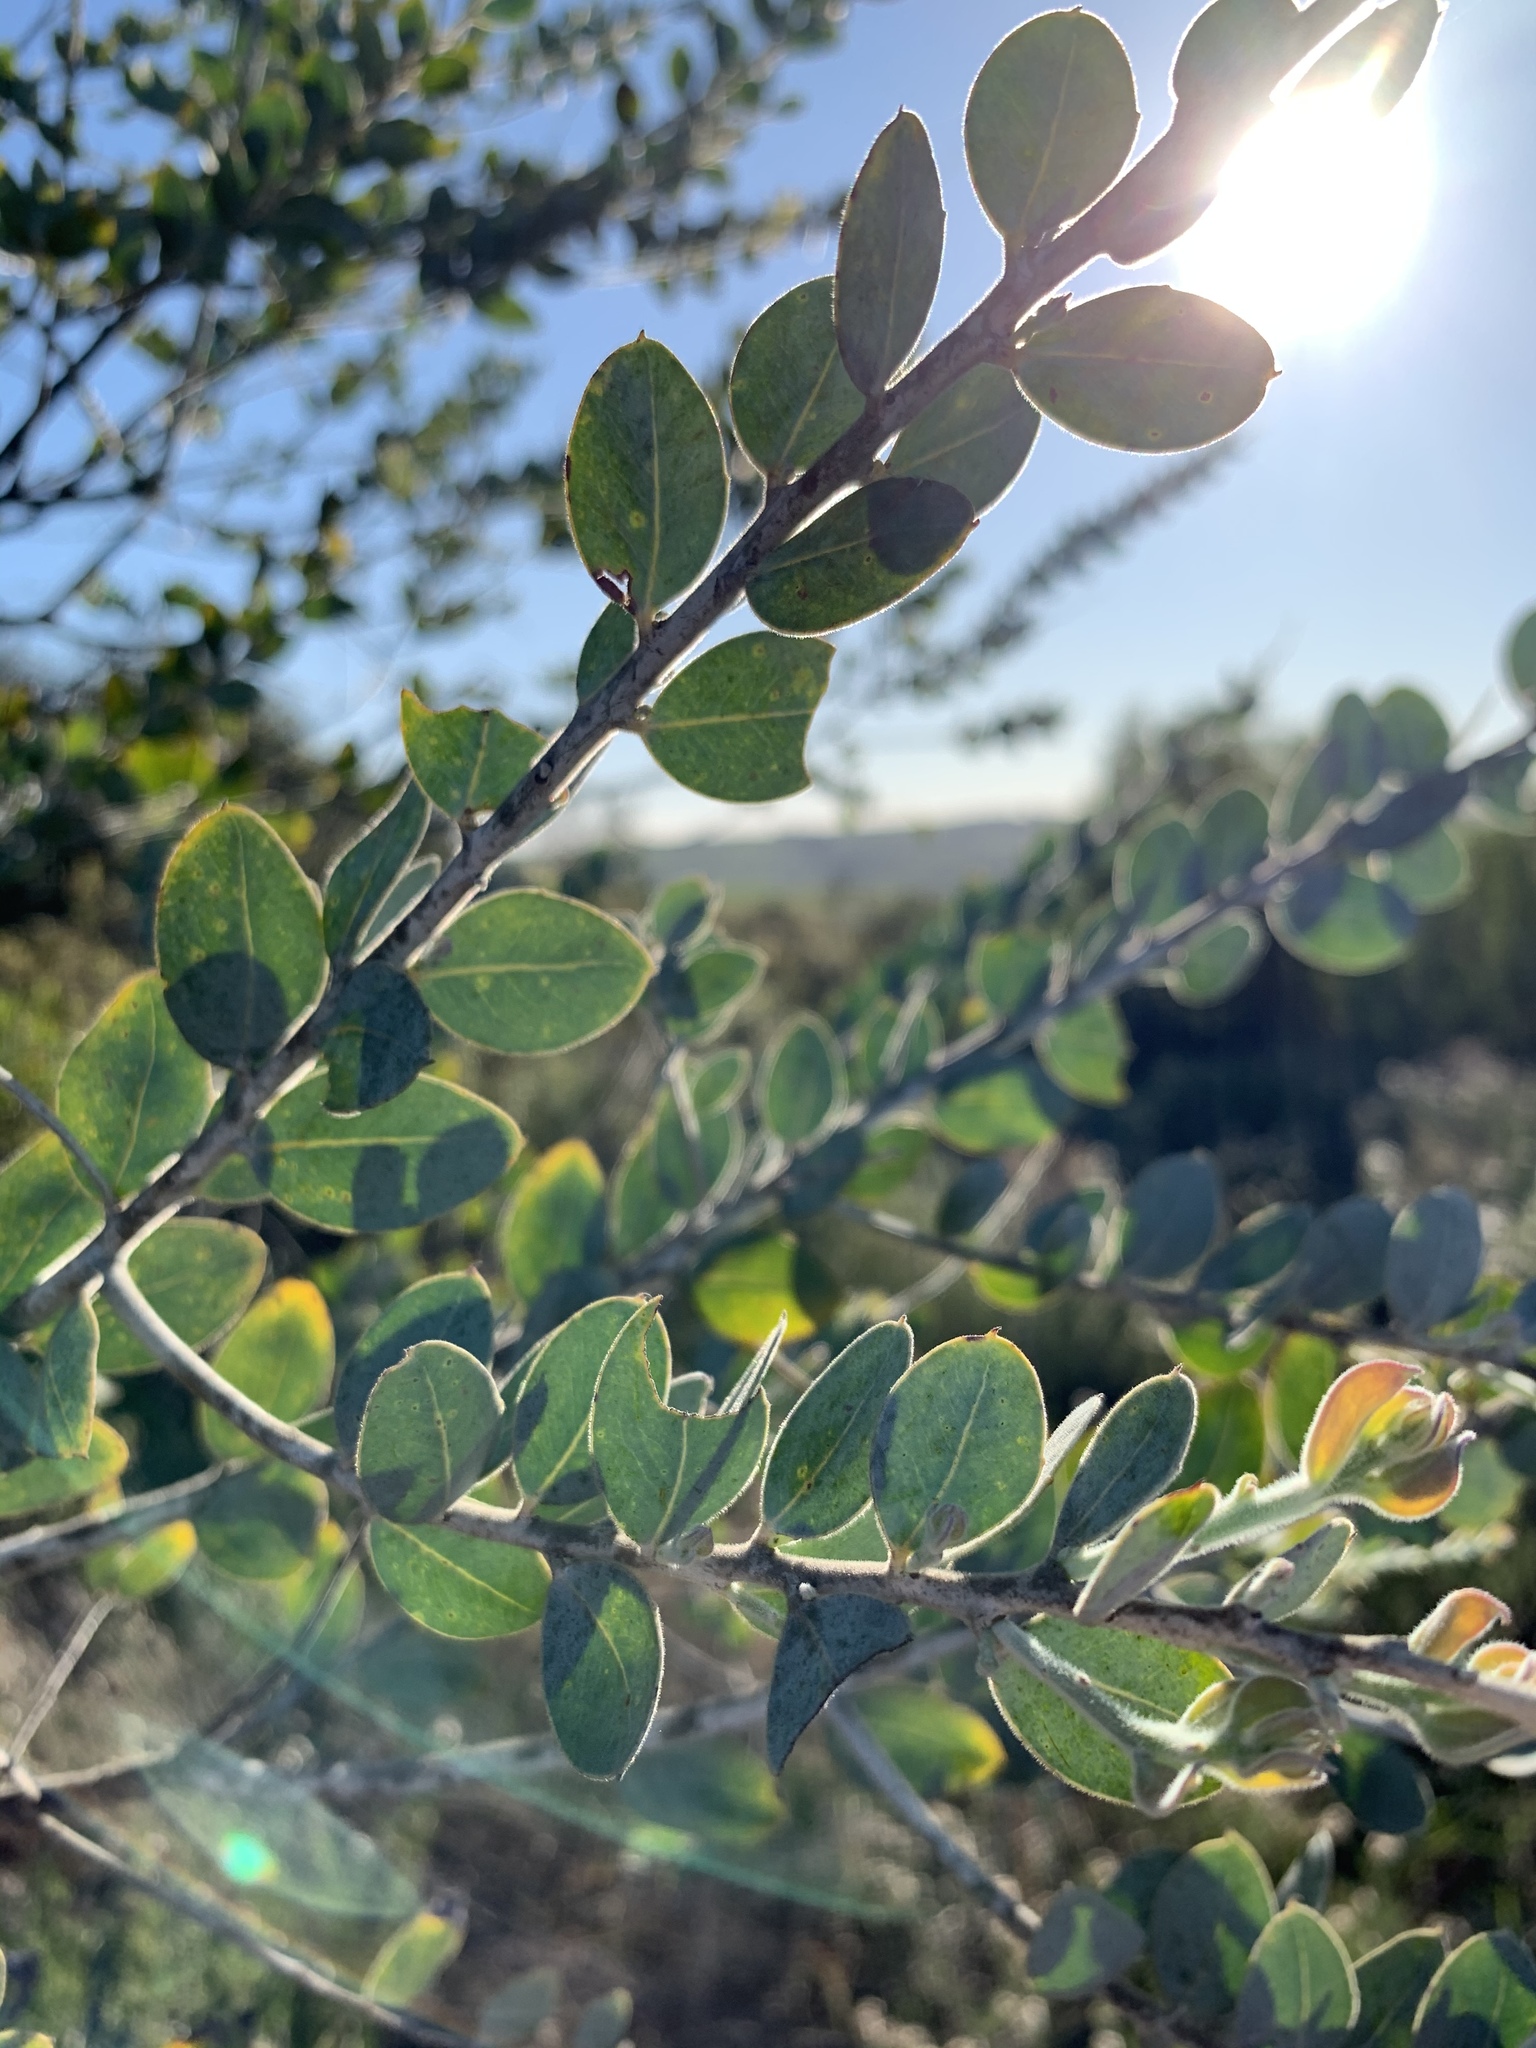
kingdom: Plantae
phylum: Tracheophyta
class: Magnoliopsida
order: Fabales
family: Fabaceae
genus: Acacia
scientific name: Acacia podalyriifolia
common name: Pearl wattle
